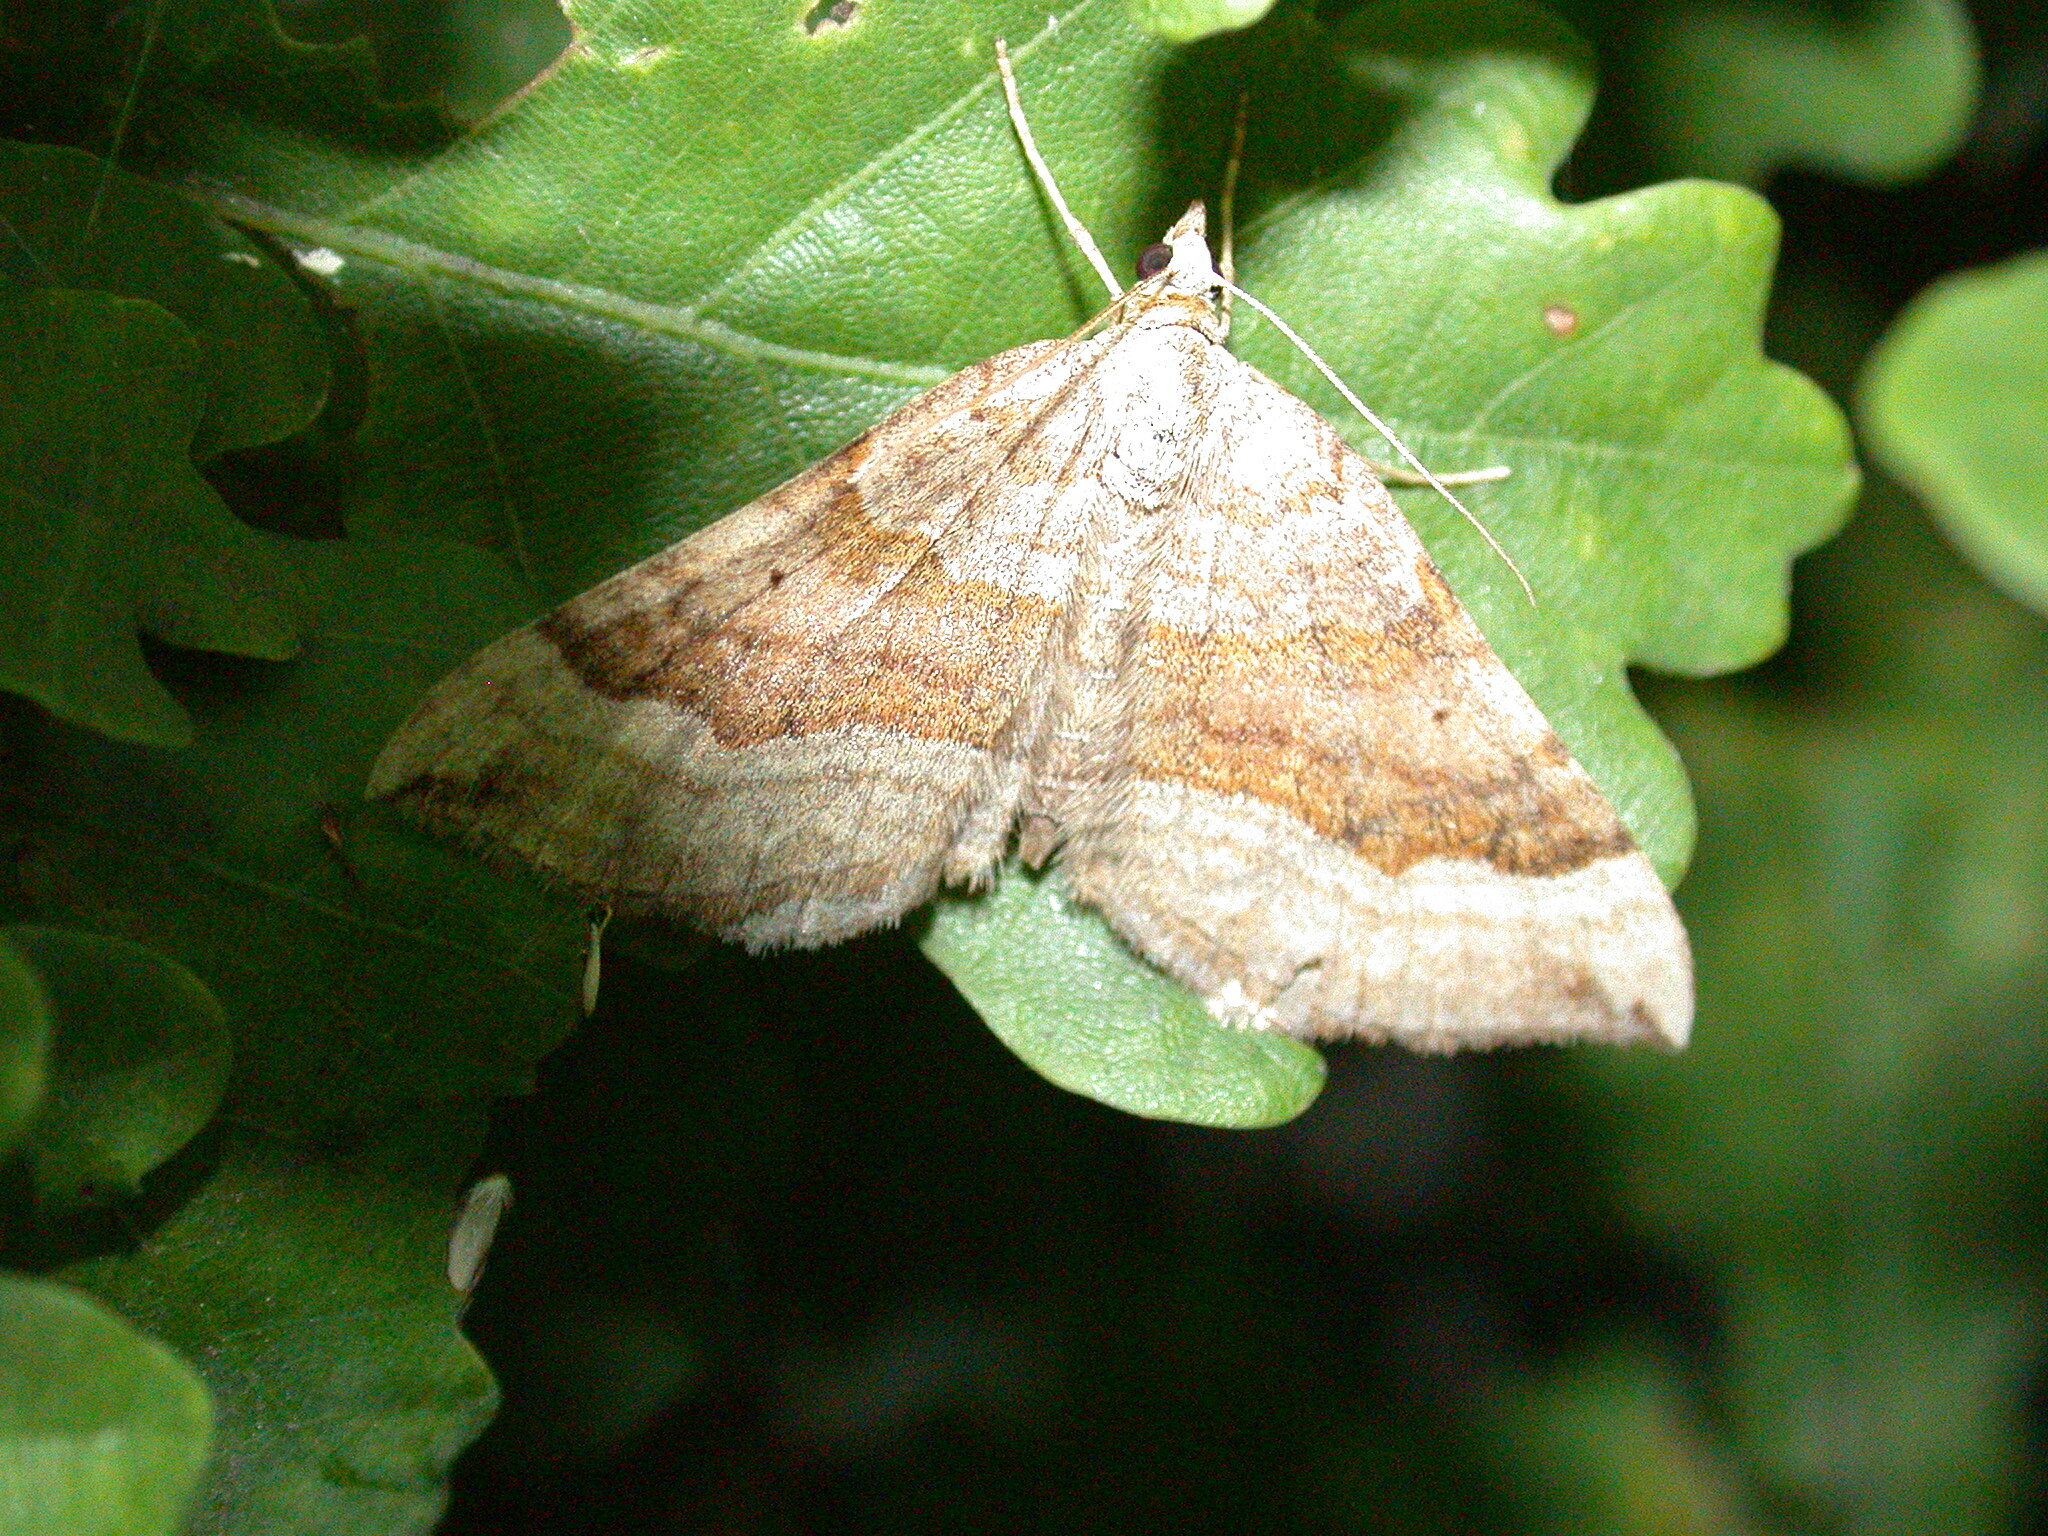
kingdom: Animalia
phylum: Arthropoda
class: Insecta
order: Lepidoptera
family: Geometridae
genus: Scotopteryx
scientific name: Scotopteryx chenopodiata
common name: Shaded broad-bar
